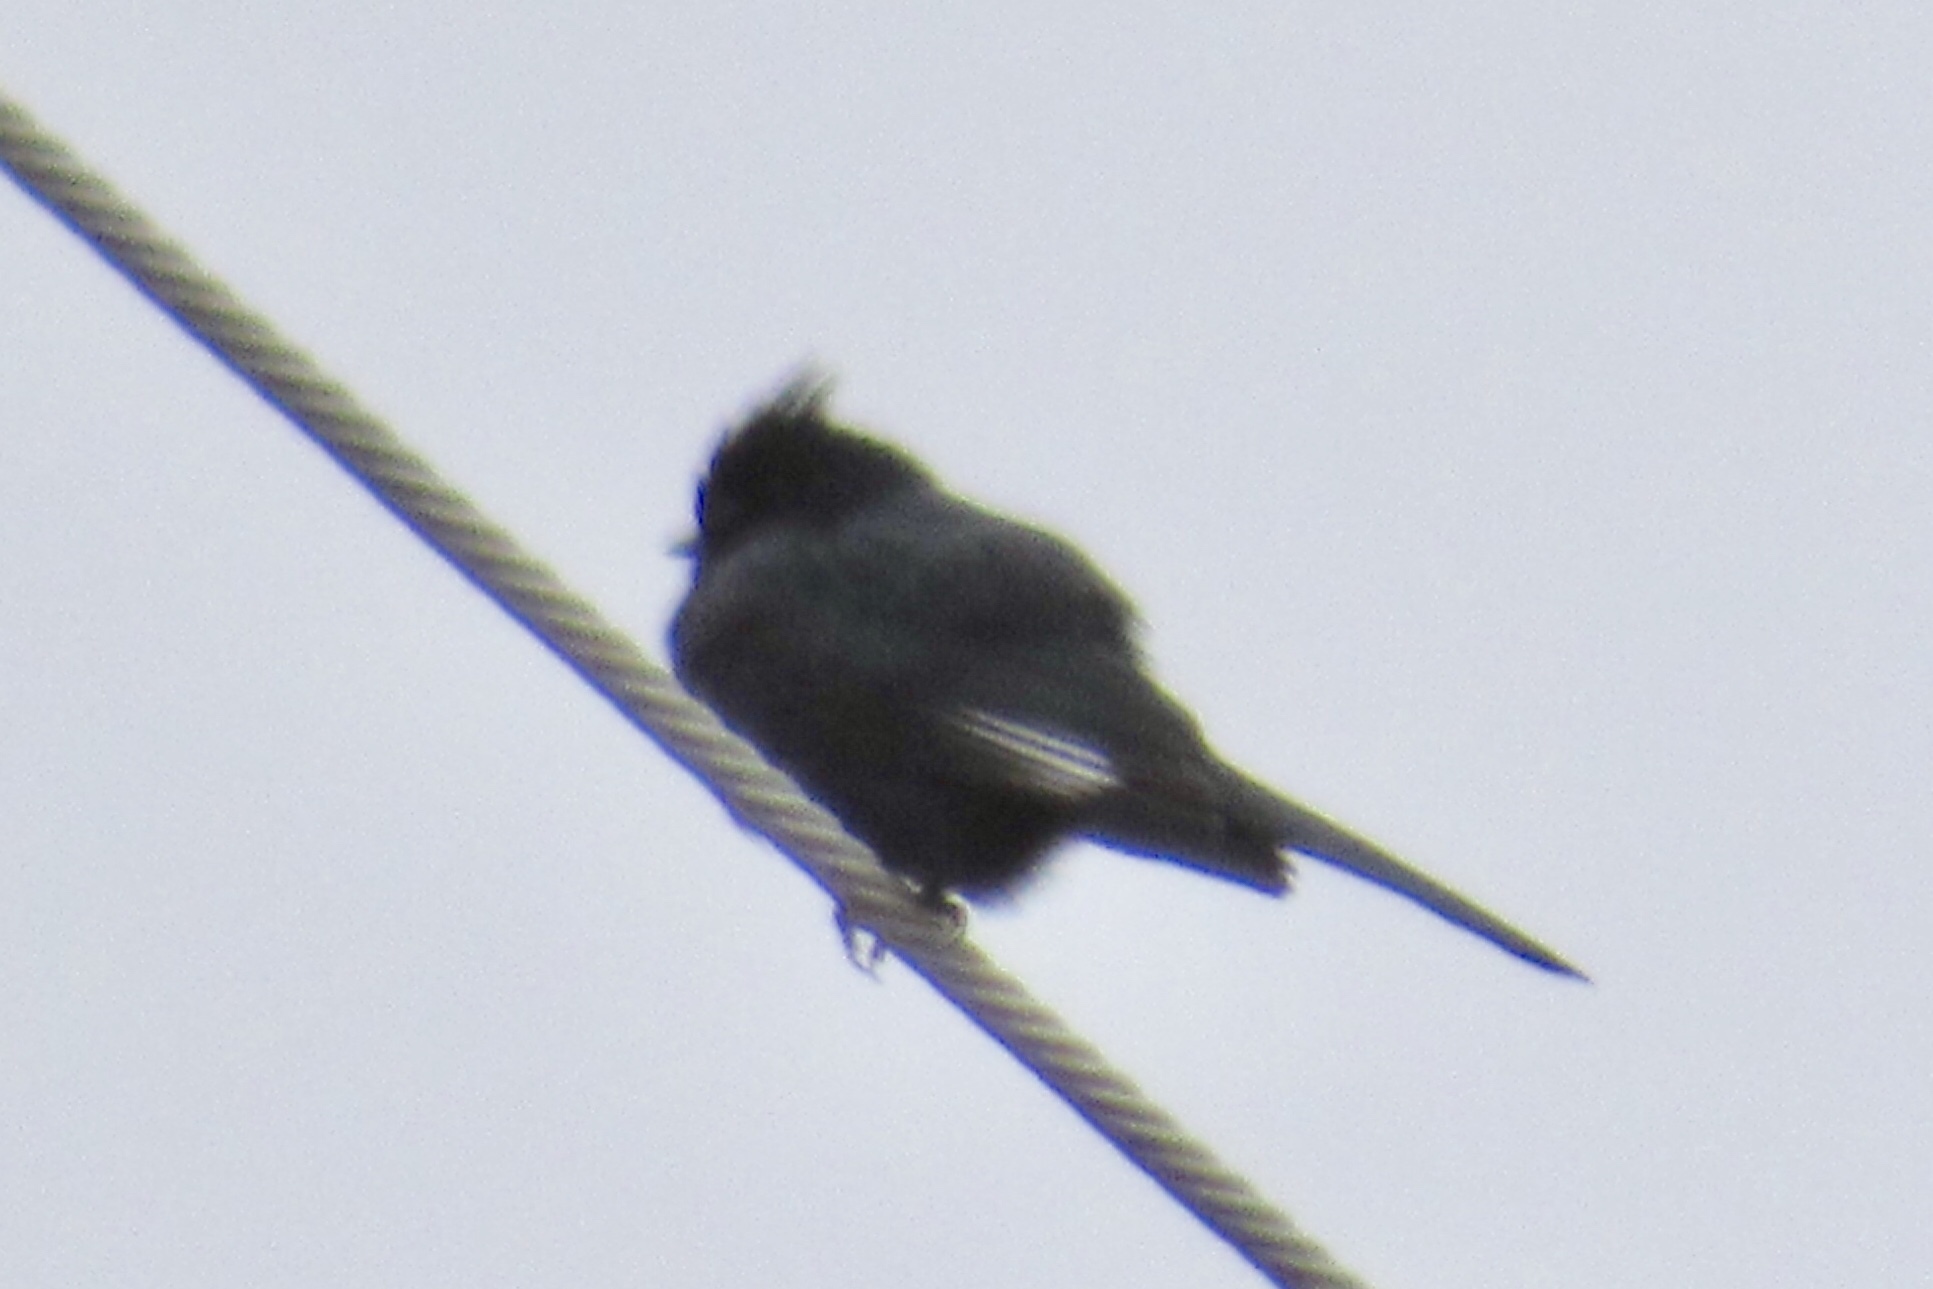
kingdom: Animalia
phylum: Chordata
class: Aves
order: Passeriformes
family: Ptilogonatidae
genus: Phainopepla
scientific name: Phainopepla nitens
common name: Phainopepla
